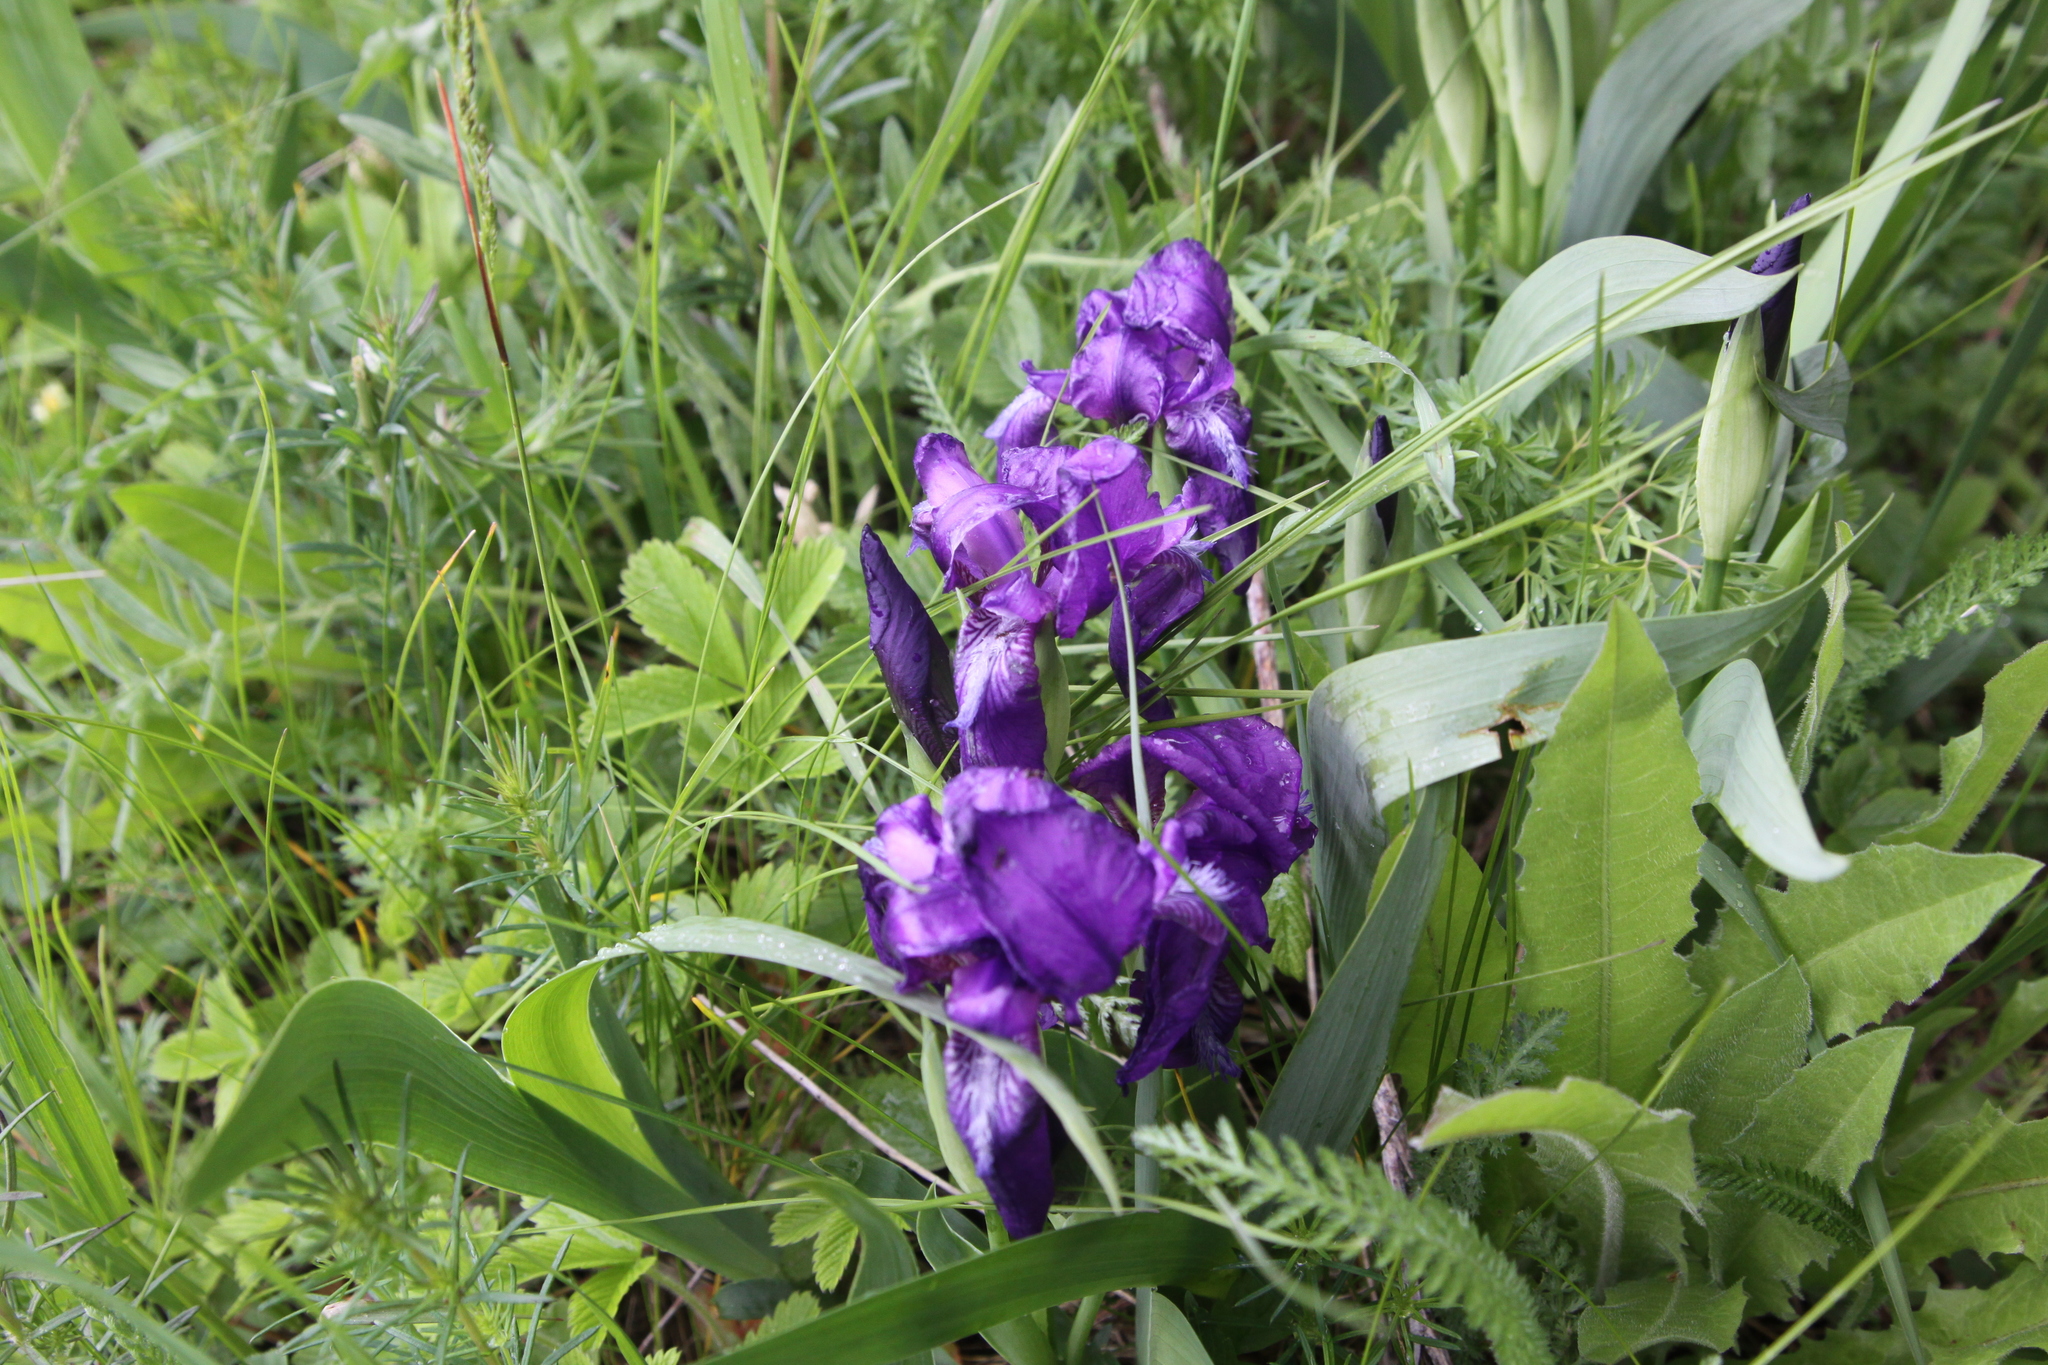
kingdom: Plantae
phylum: Tracheophyta
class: Liliopsida
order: Asparagales
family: Iridaceae
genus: Iris
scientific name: Iris aphylla
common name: Stool iris
